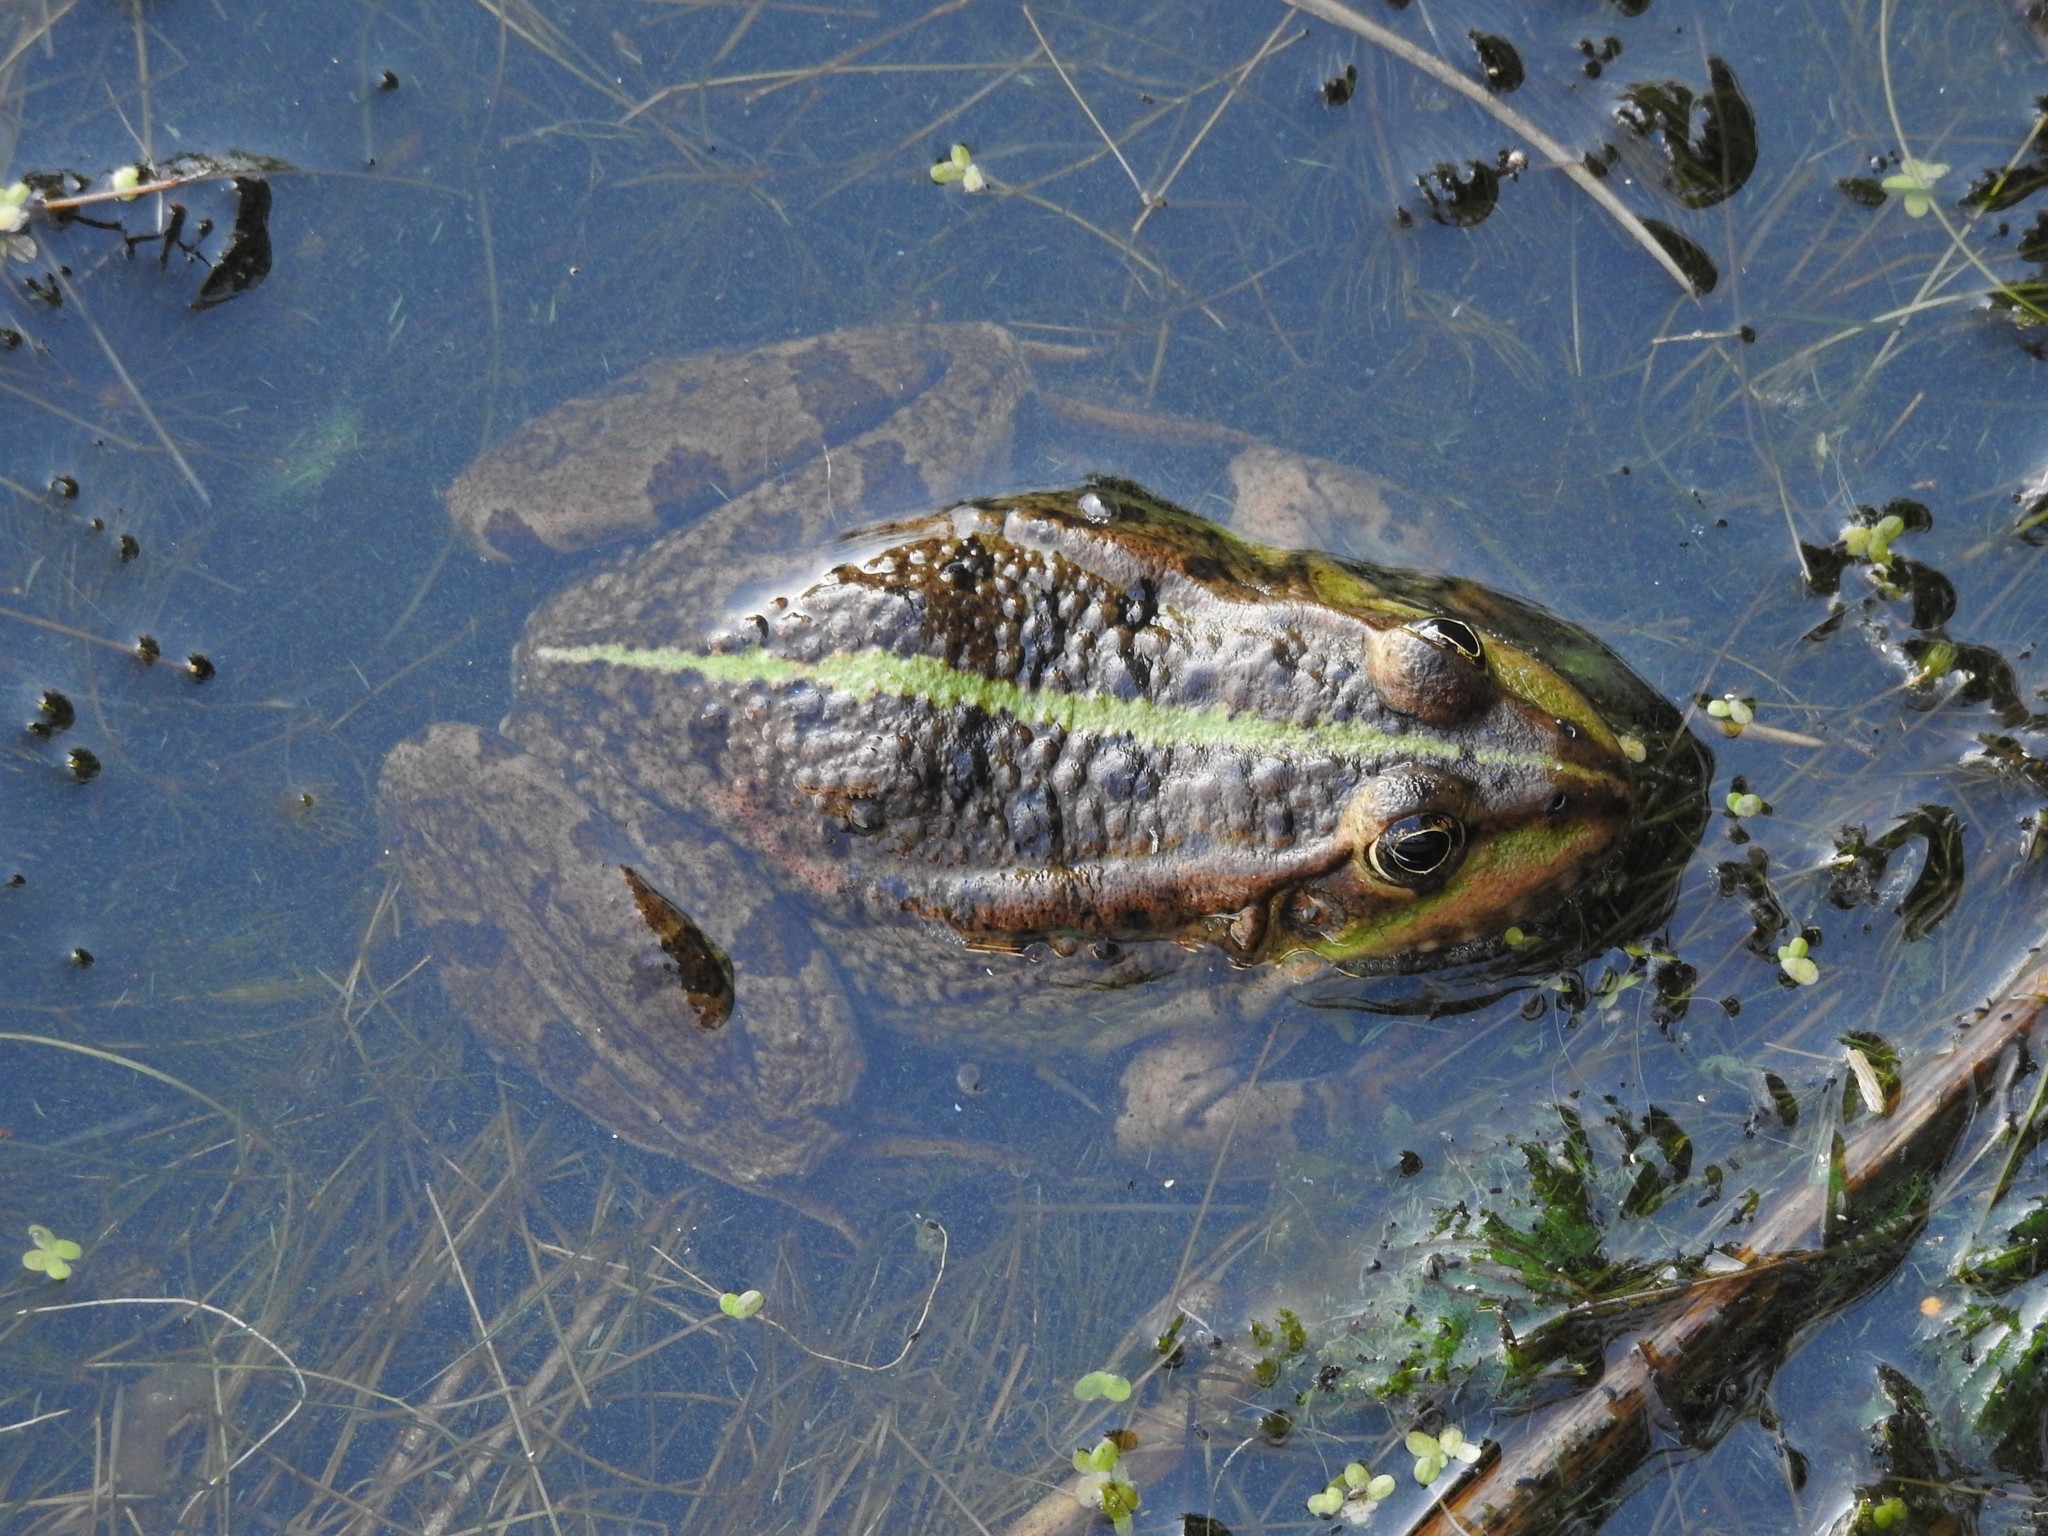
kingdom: Animalia
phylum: Chordata
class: Amphibia
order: Anura
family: Ranidae
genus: Pelophylax
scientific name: Pelophylax lessonae
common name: Pool frog
